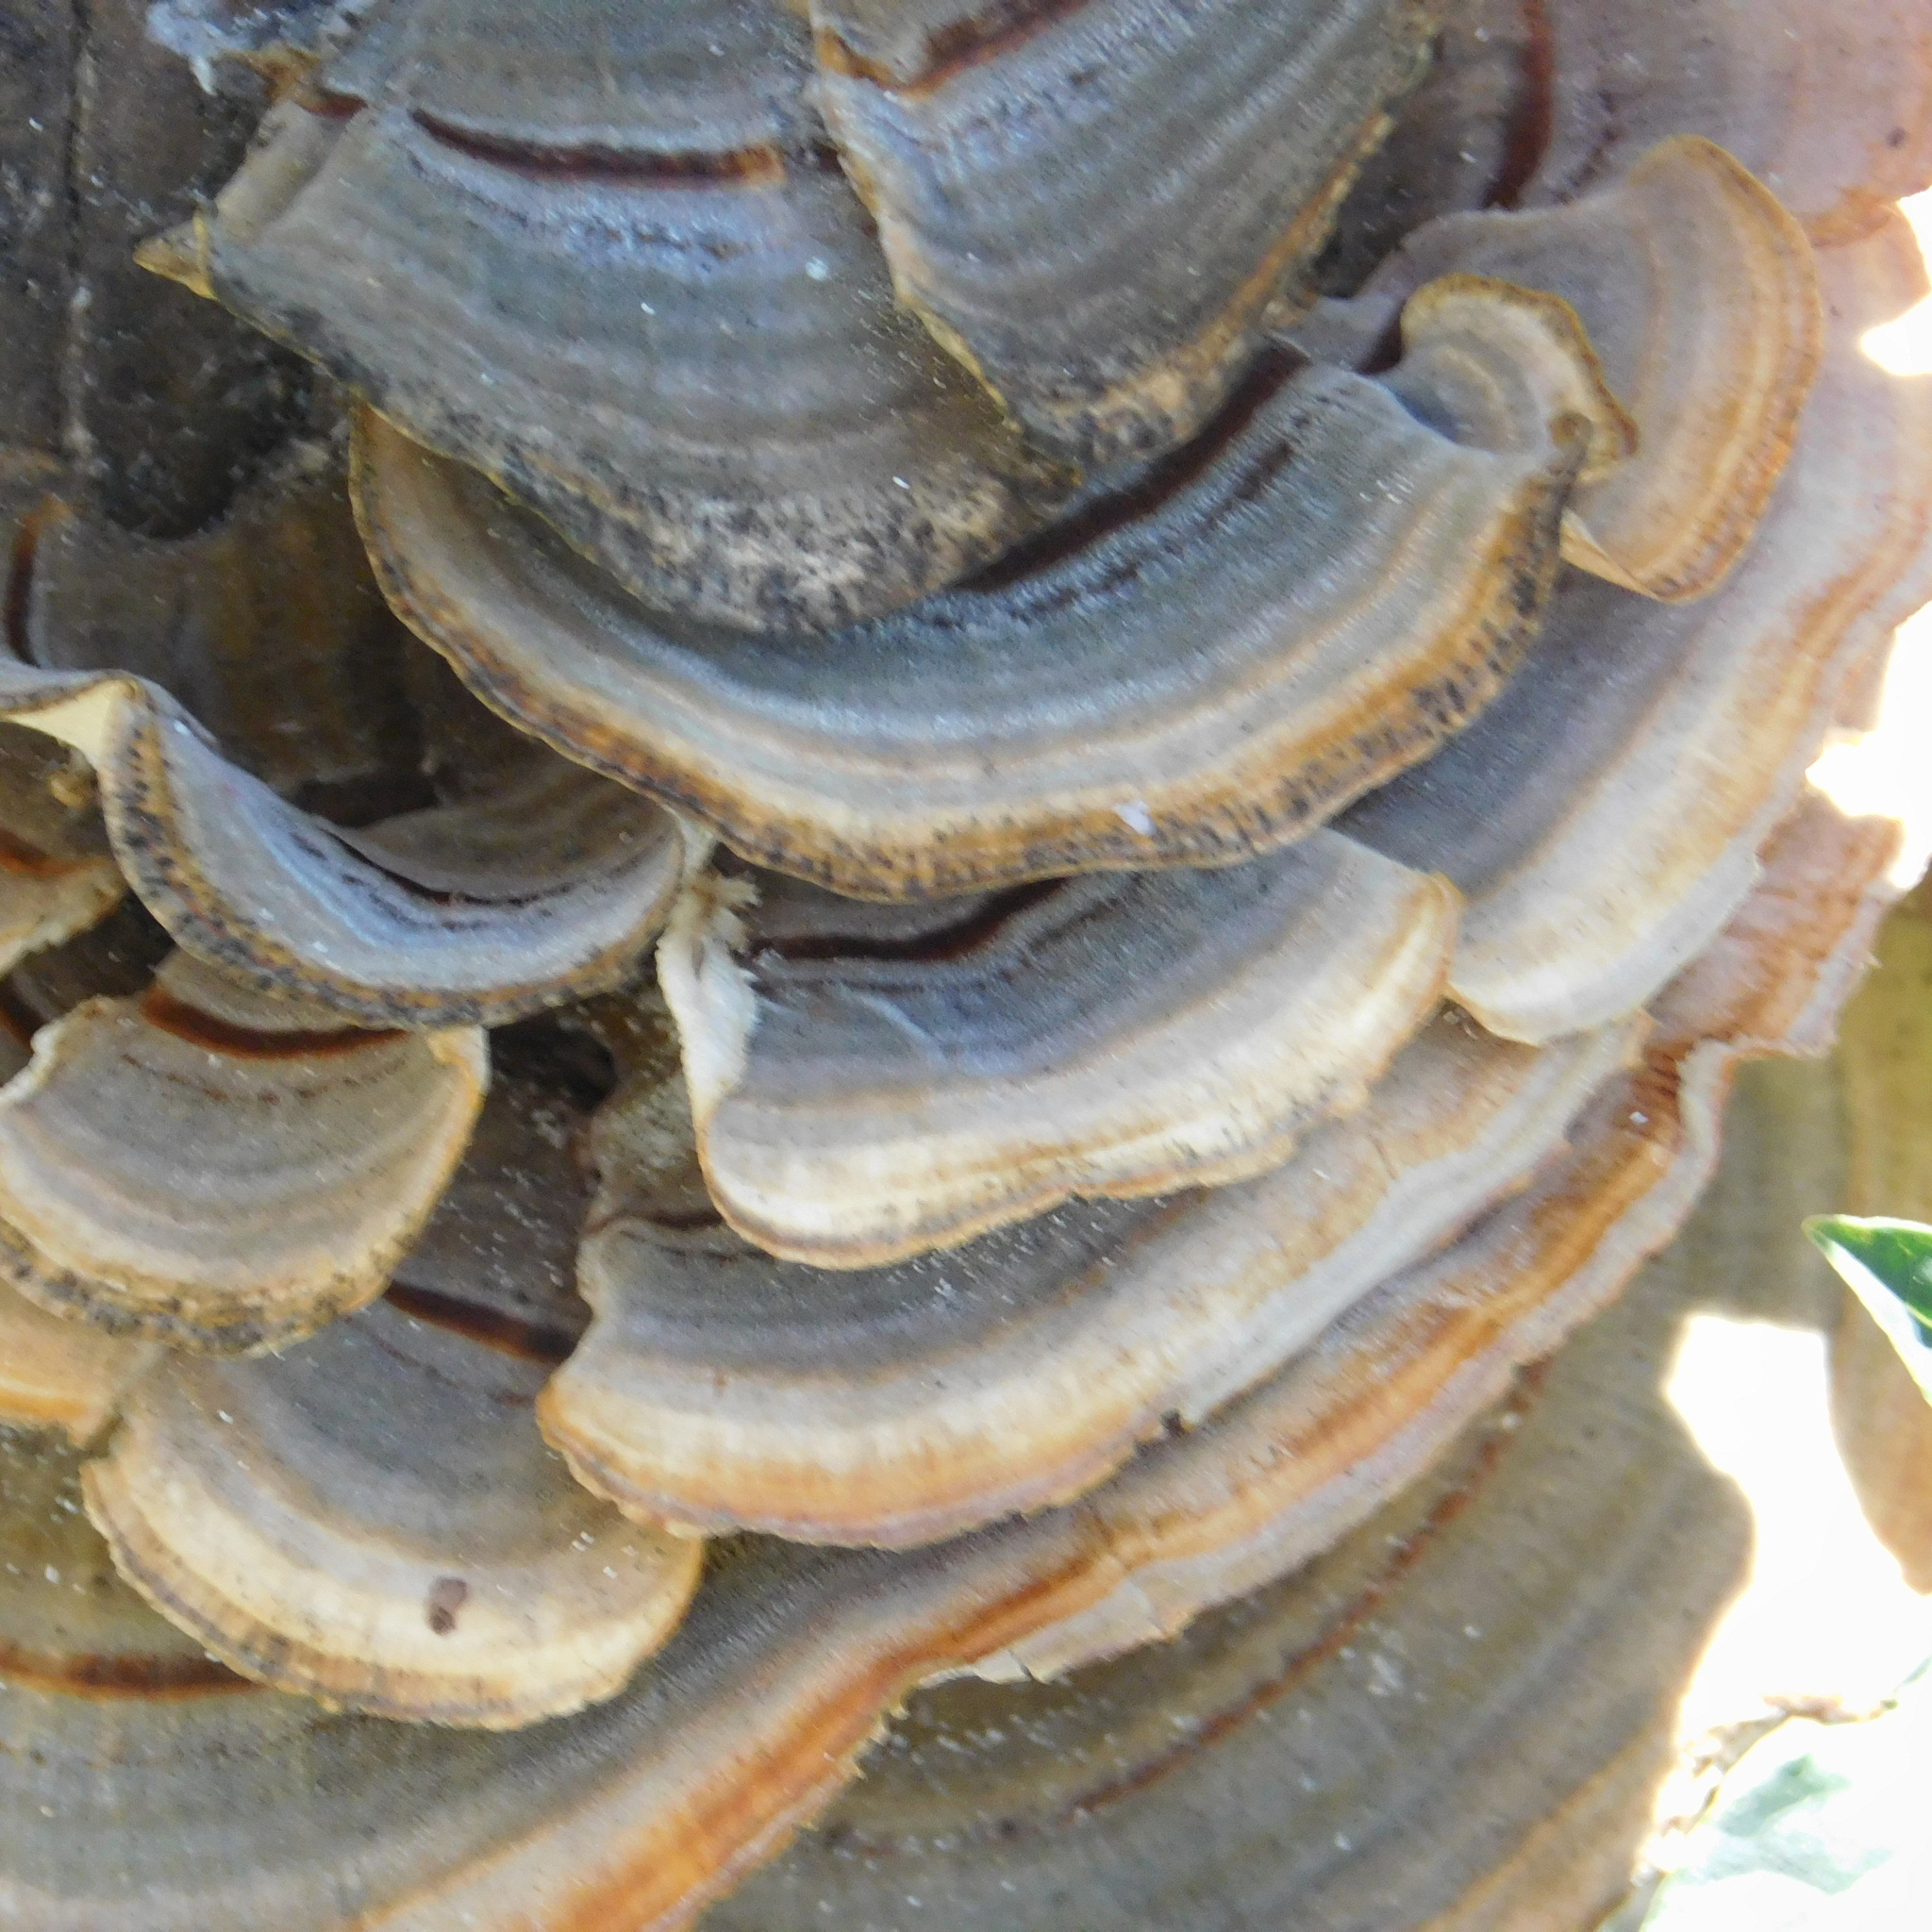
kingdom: Fungi
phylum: Basidiomycota
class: Agaricomycetes
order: Polyporales
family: Polyporaceae
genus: Trametes
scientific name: Trametes versicolor
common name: Turkeytail
